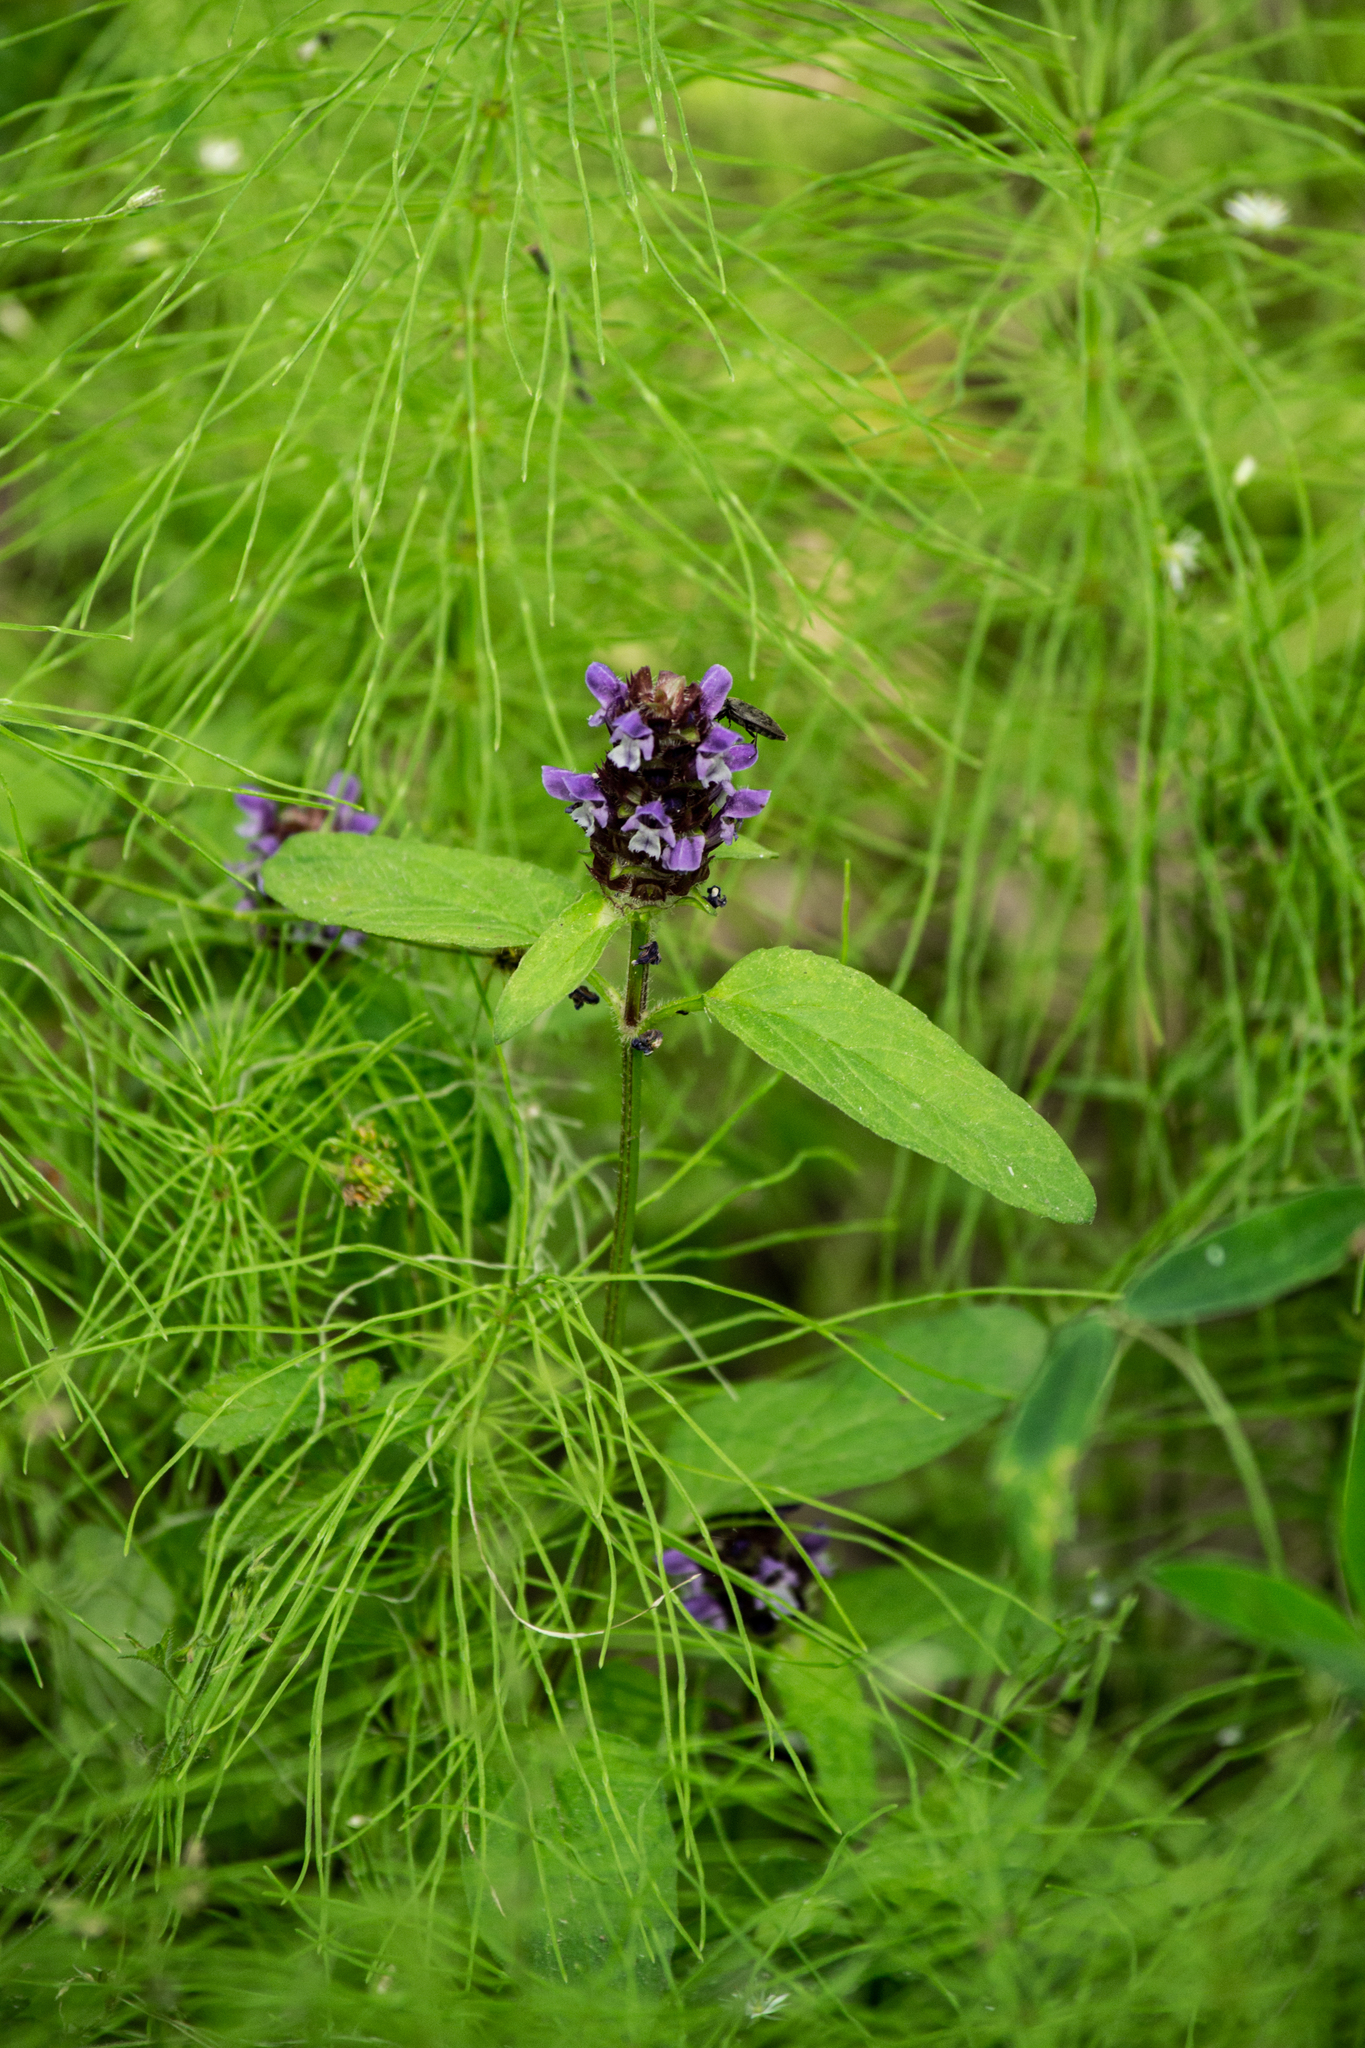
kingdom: Plantae
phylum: Tracheophyta
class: Magnoliopsida
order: Lamiales
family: Lamiaceae
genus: Prunella
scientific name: Prunella vulgaris
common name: Heal-all
